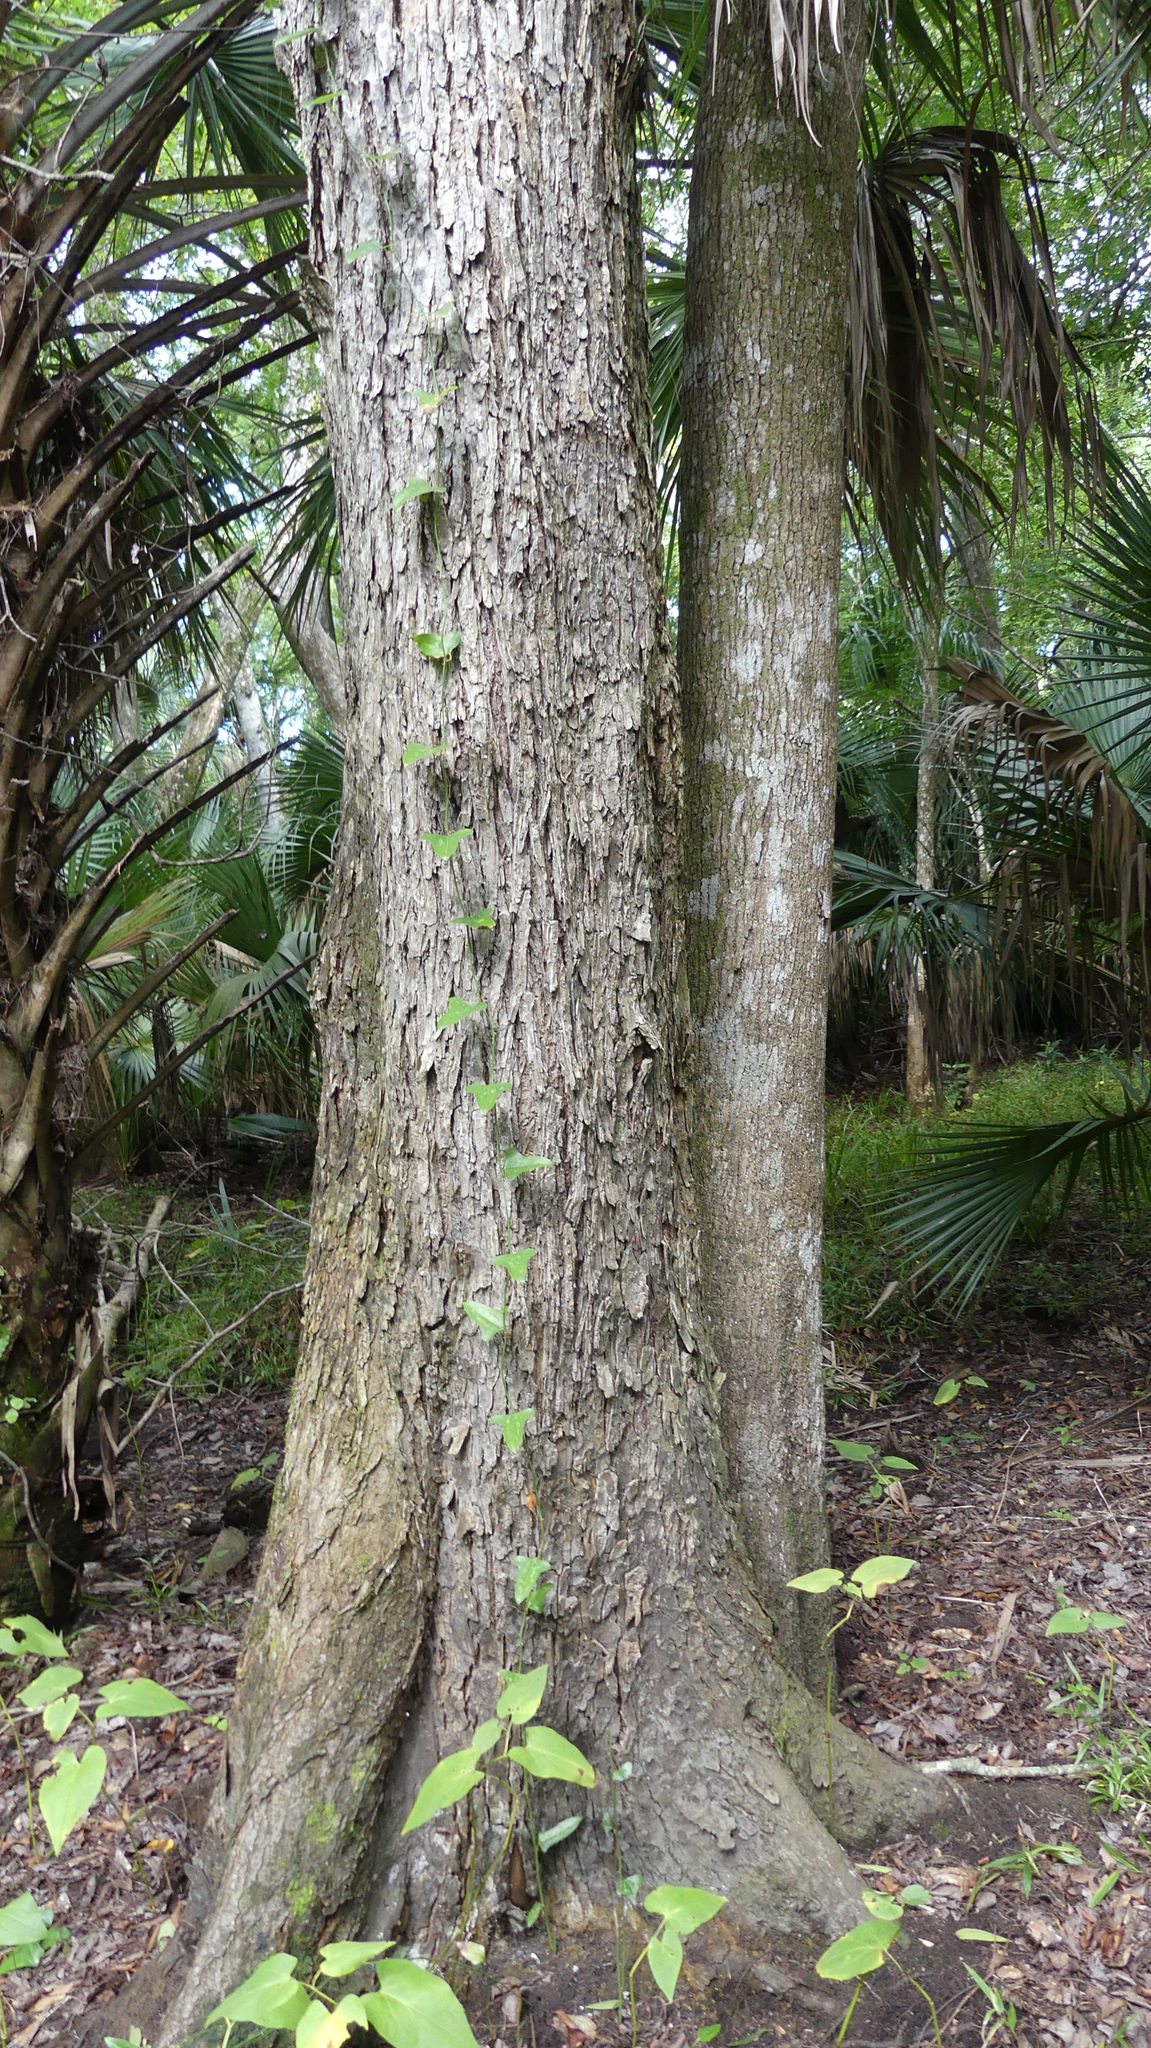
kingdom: Plantae
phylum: Tracheophyta
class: Magnoliopsida
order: Rosales
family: Ulmaceae
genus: Ulmus
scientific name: Ulmus americana
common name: American elm
